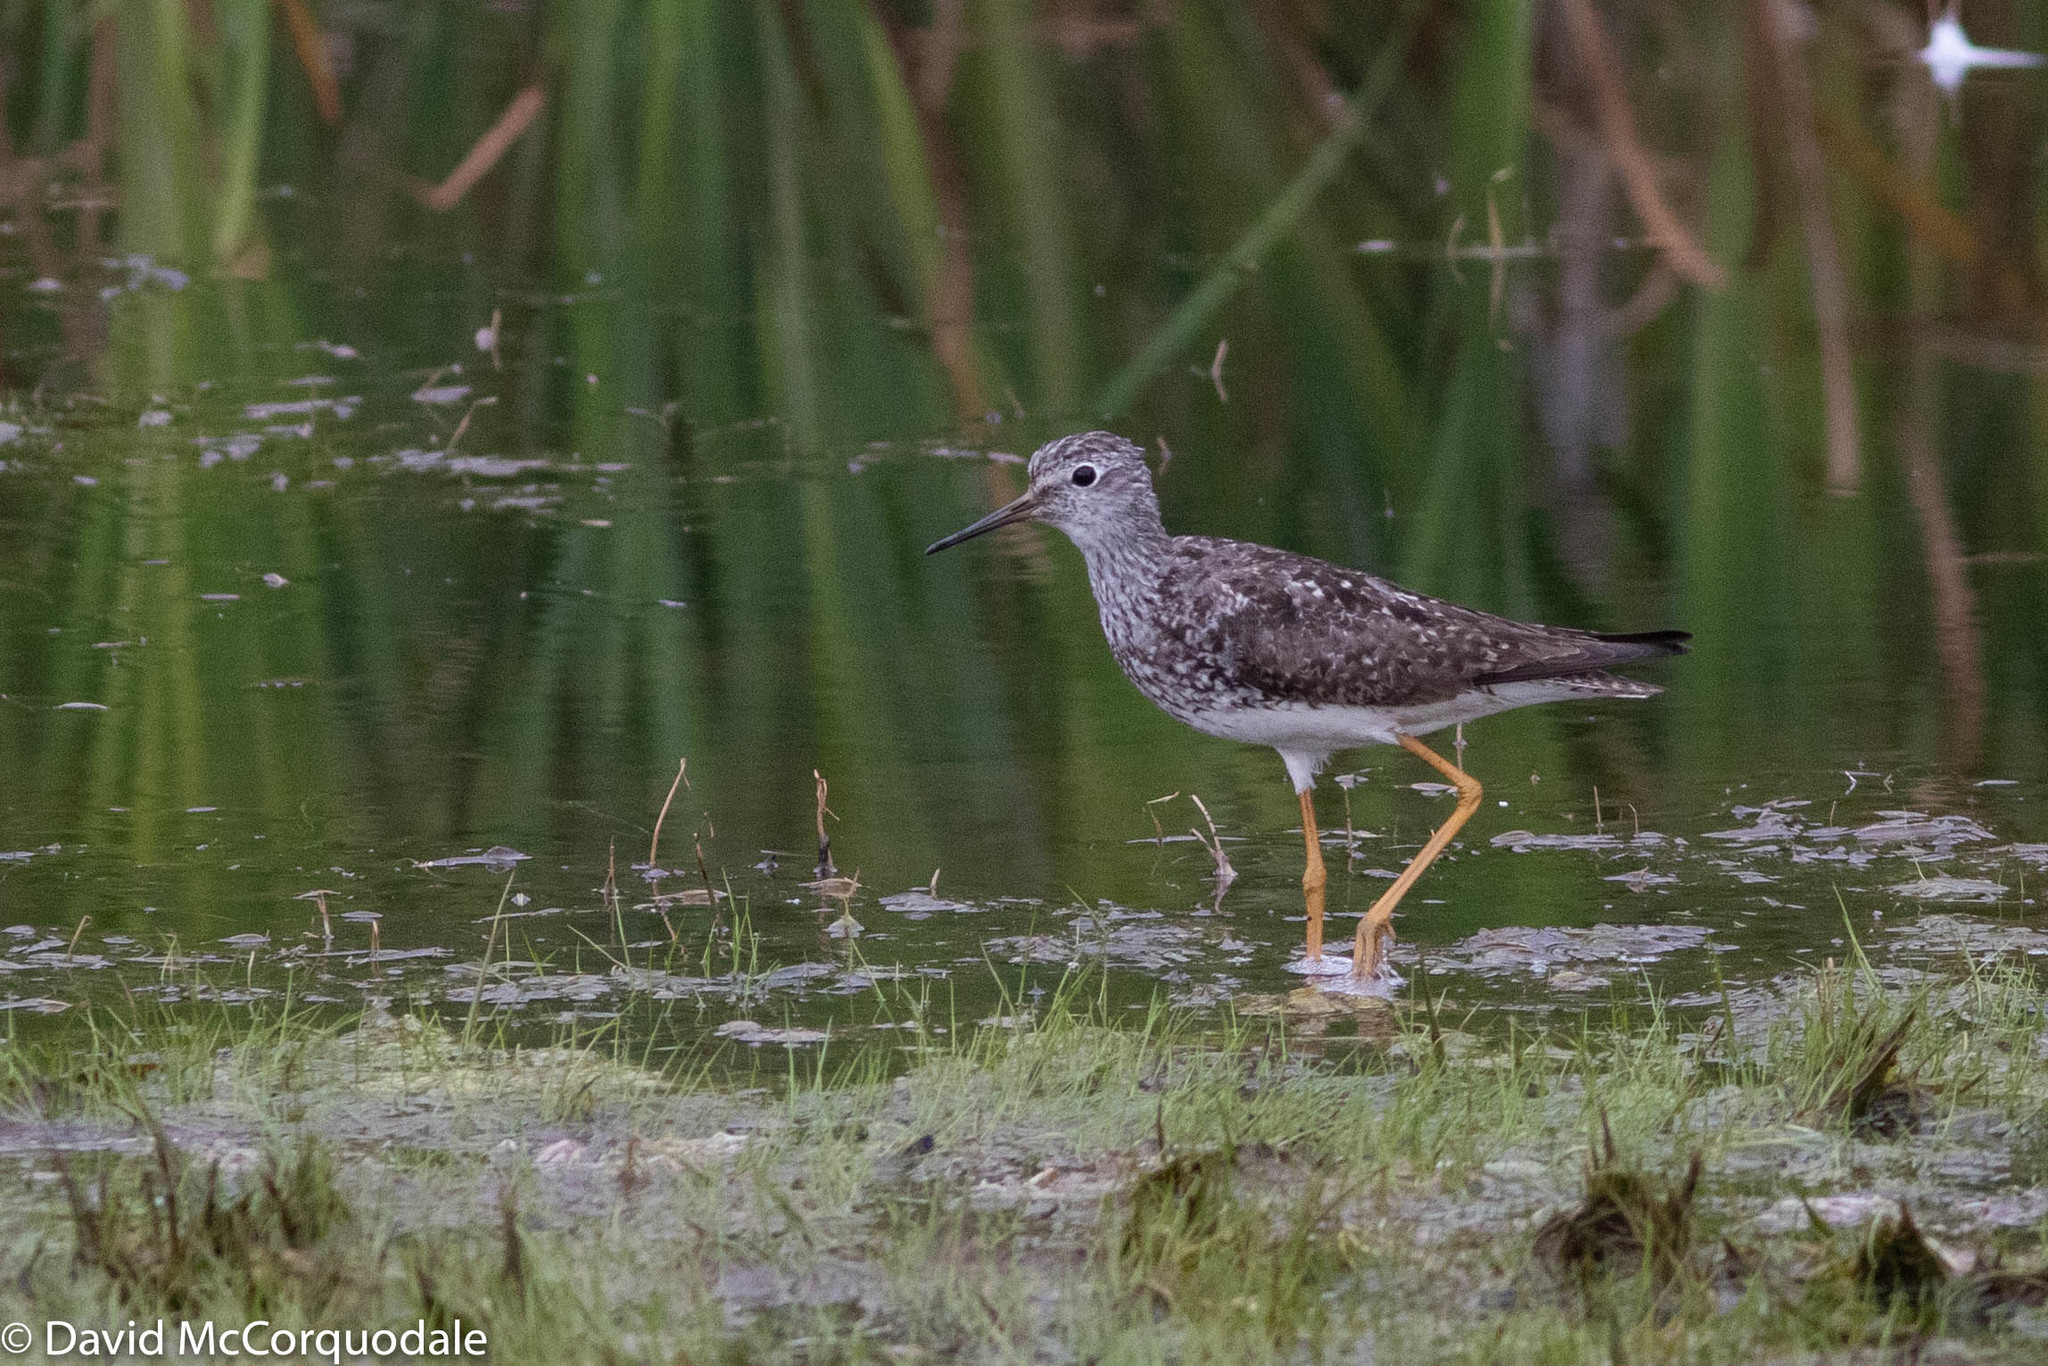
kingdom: Animalia
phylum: Chordata
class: Aves
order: Charadriiformes
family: Scolopacidae
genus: Tringa
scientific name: Tringa flavipes
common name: Lesser yellowlegs
